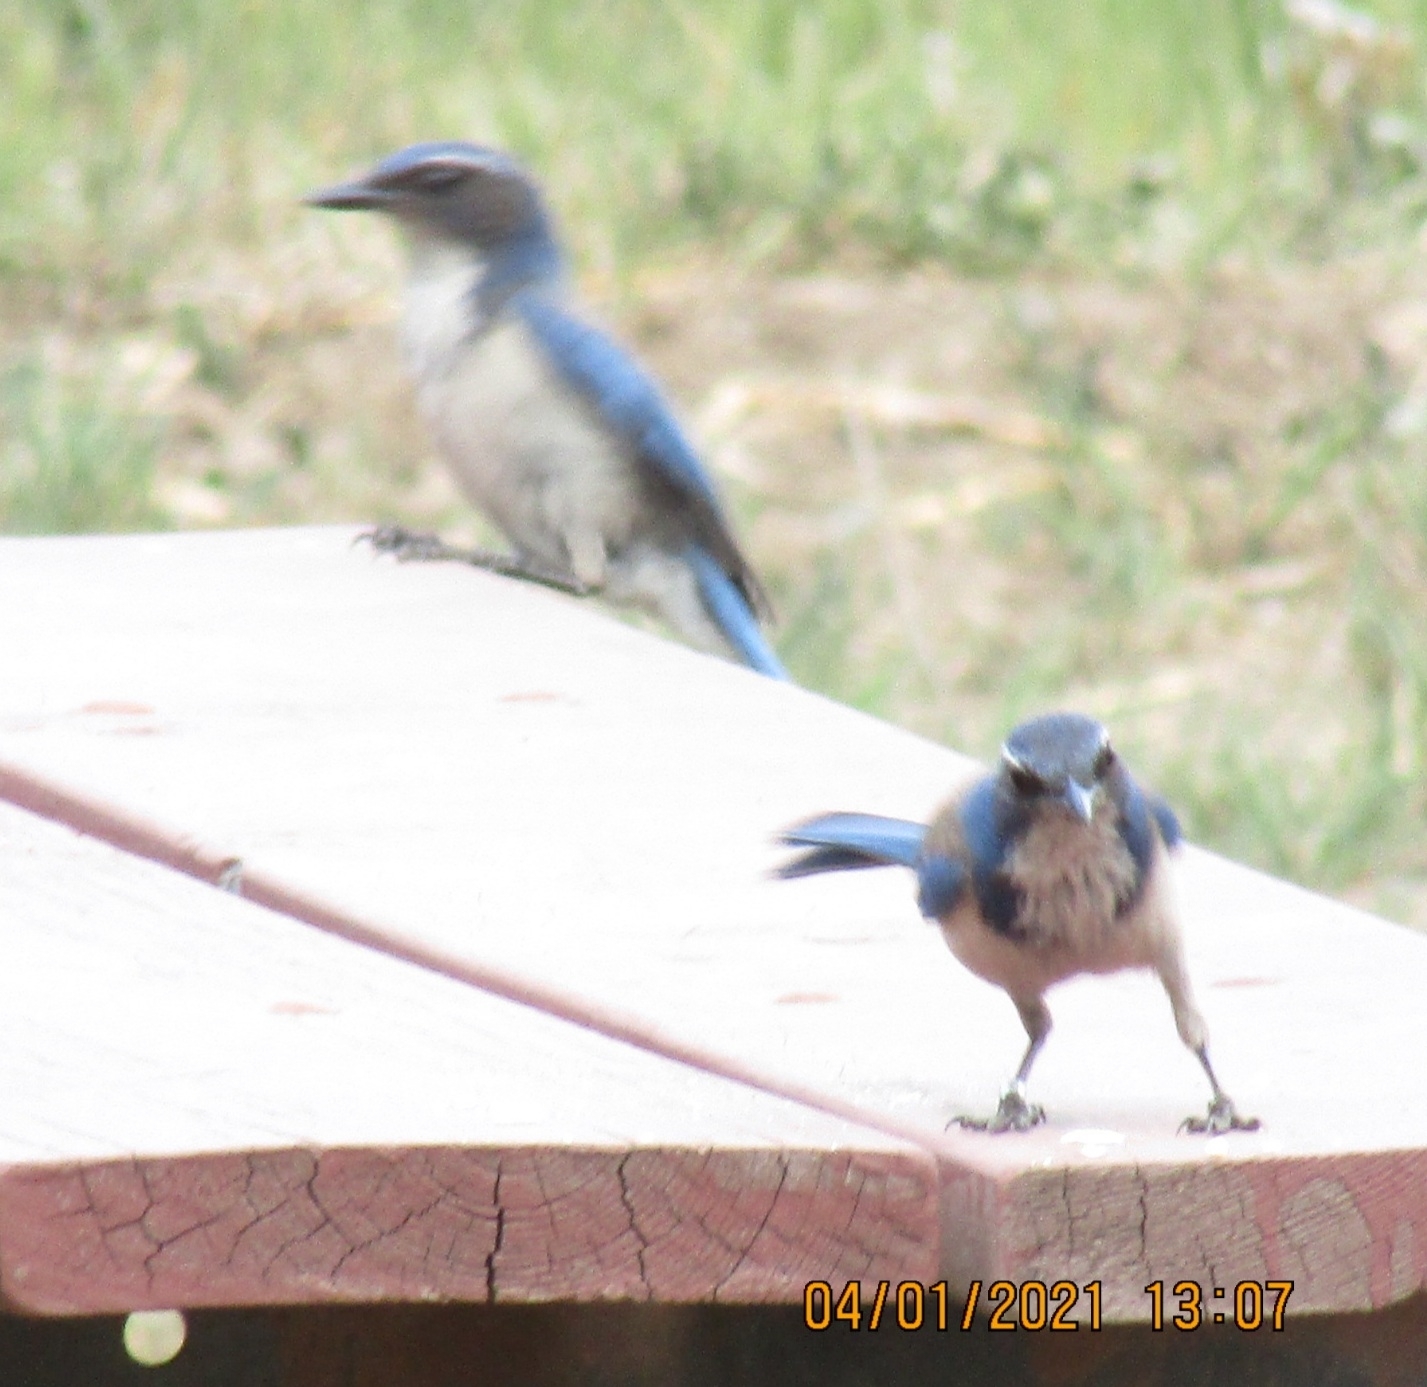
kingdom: Animalia
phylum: Chordata
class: Aves
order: Passeriformes
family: Corvidae
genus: Aphelocoma
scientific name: Aphelocoma californica
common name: California scrub-jay
